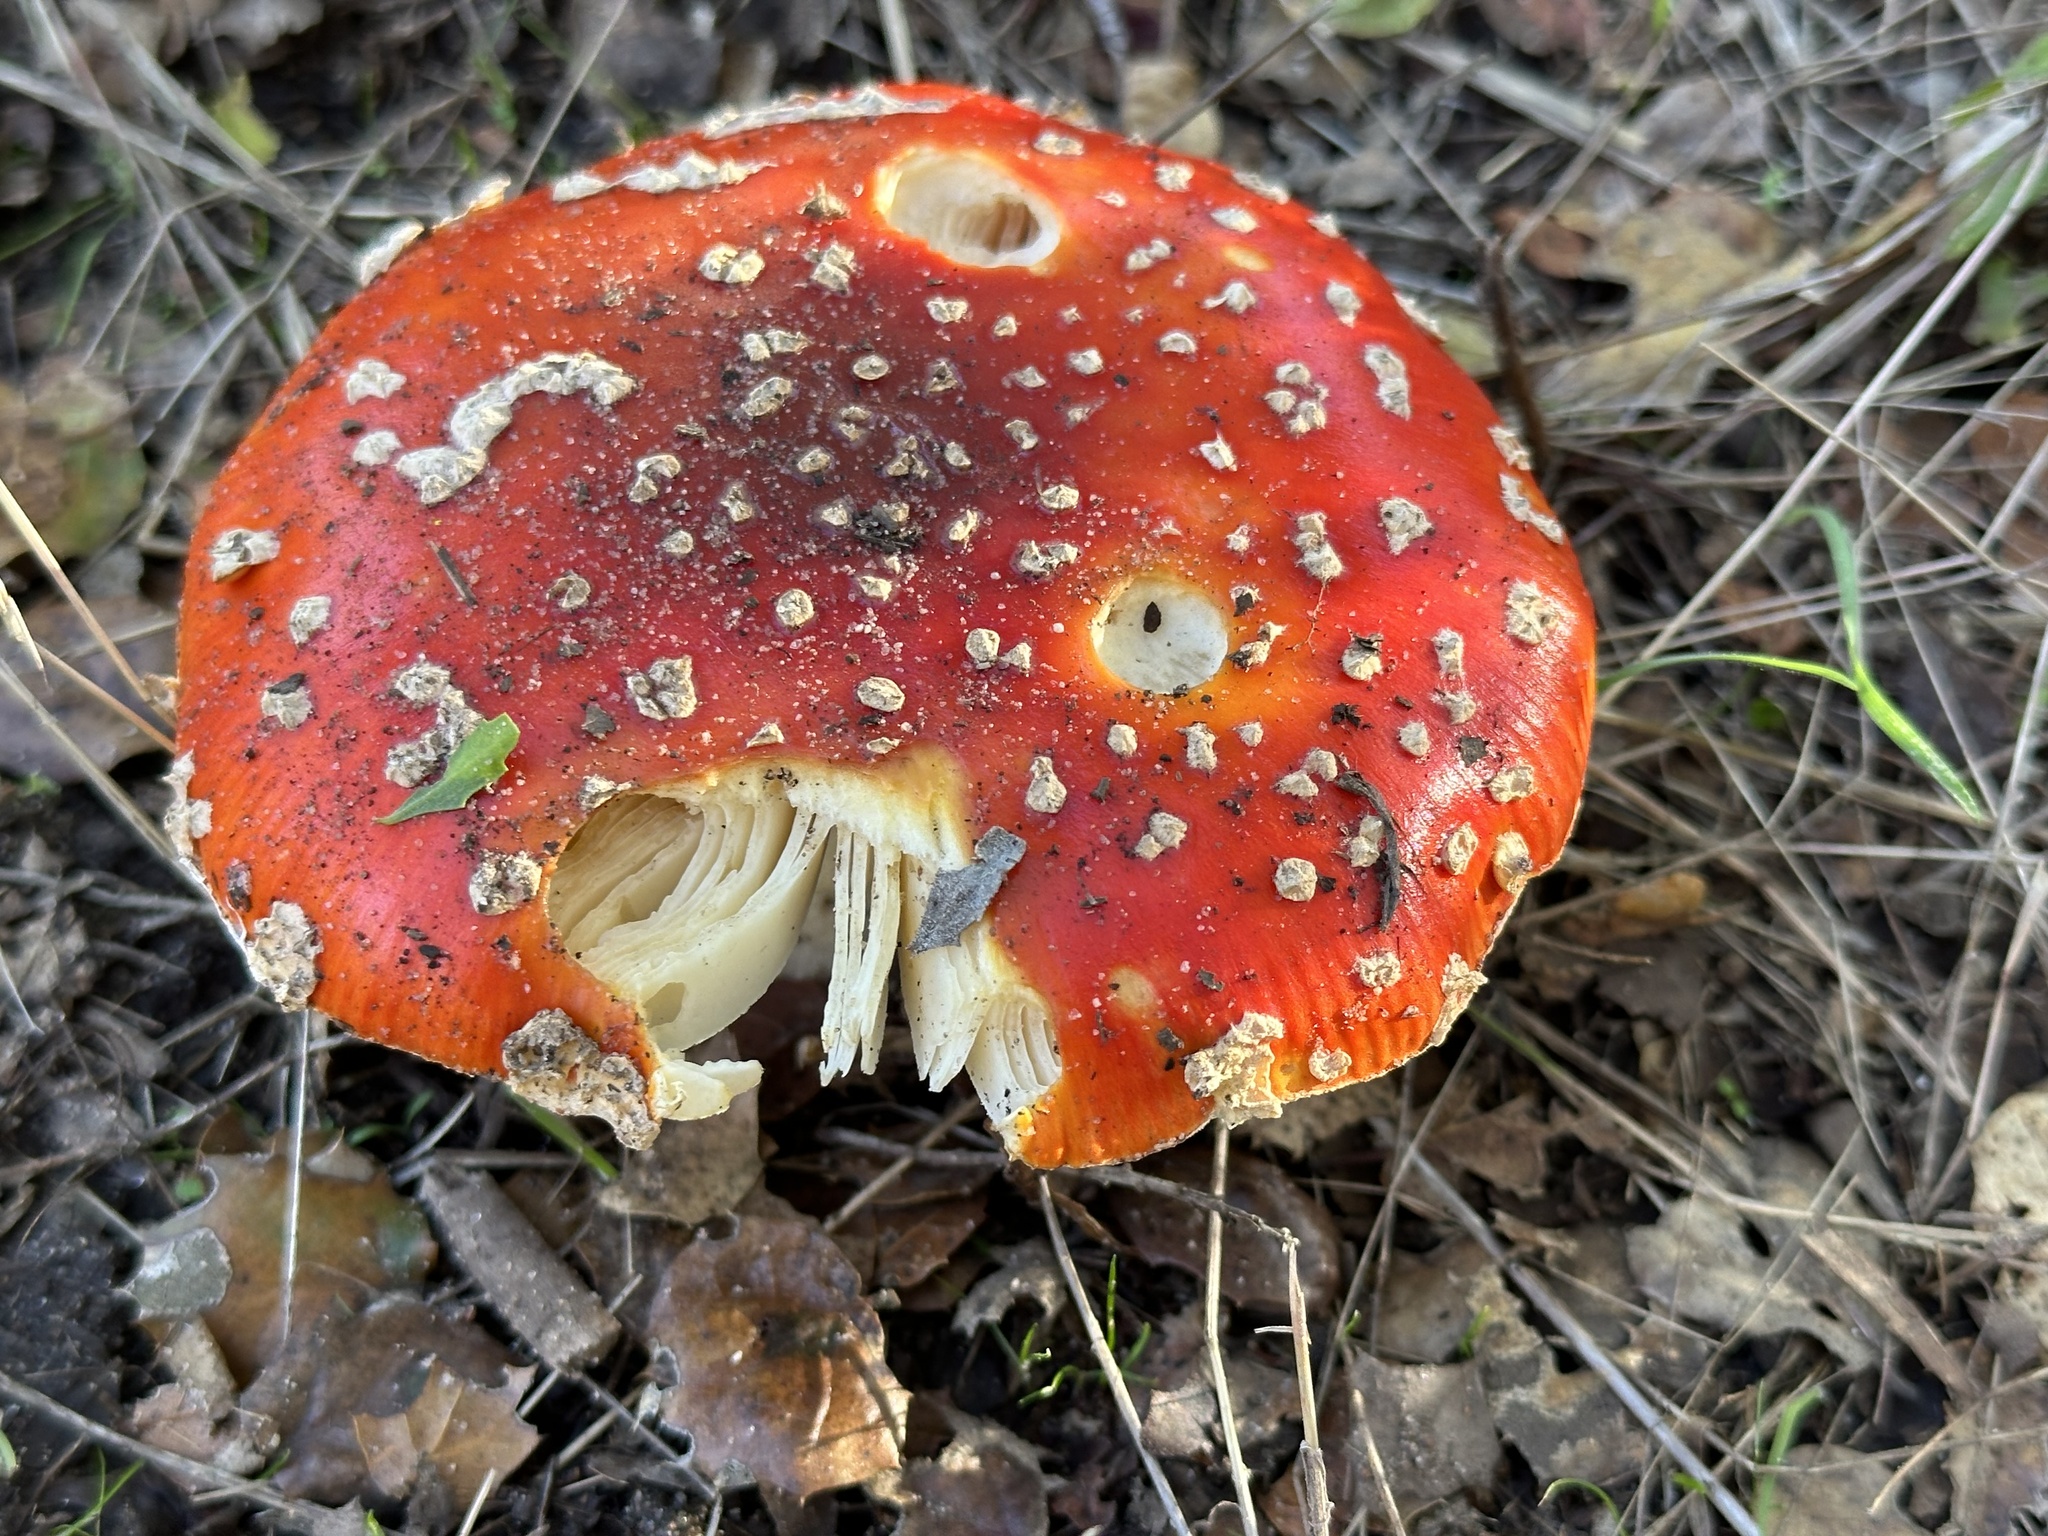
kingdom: Fungi
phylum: Basidiomycota
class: Agaricomycetes
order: Agaricales
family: Amanitaceae
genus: Amanita
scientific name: Amanita muscaria
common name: Fly agaric
